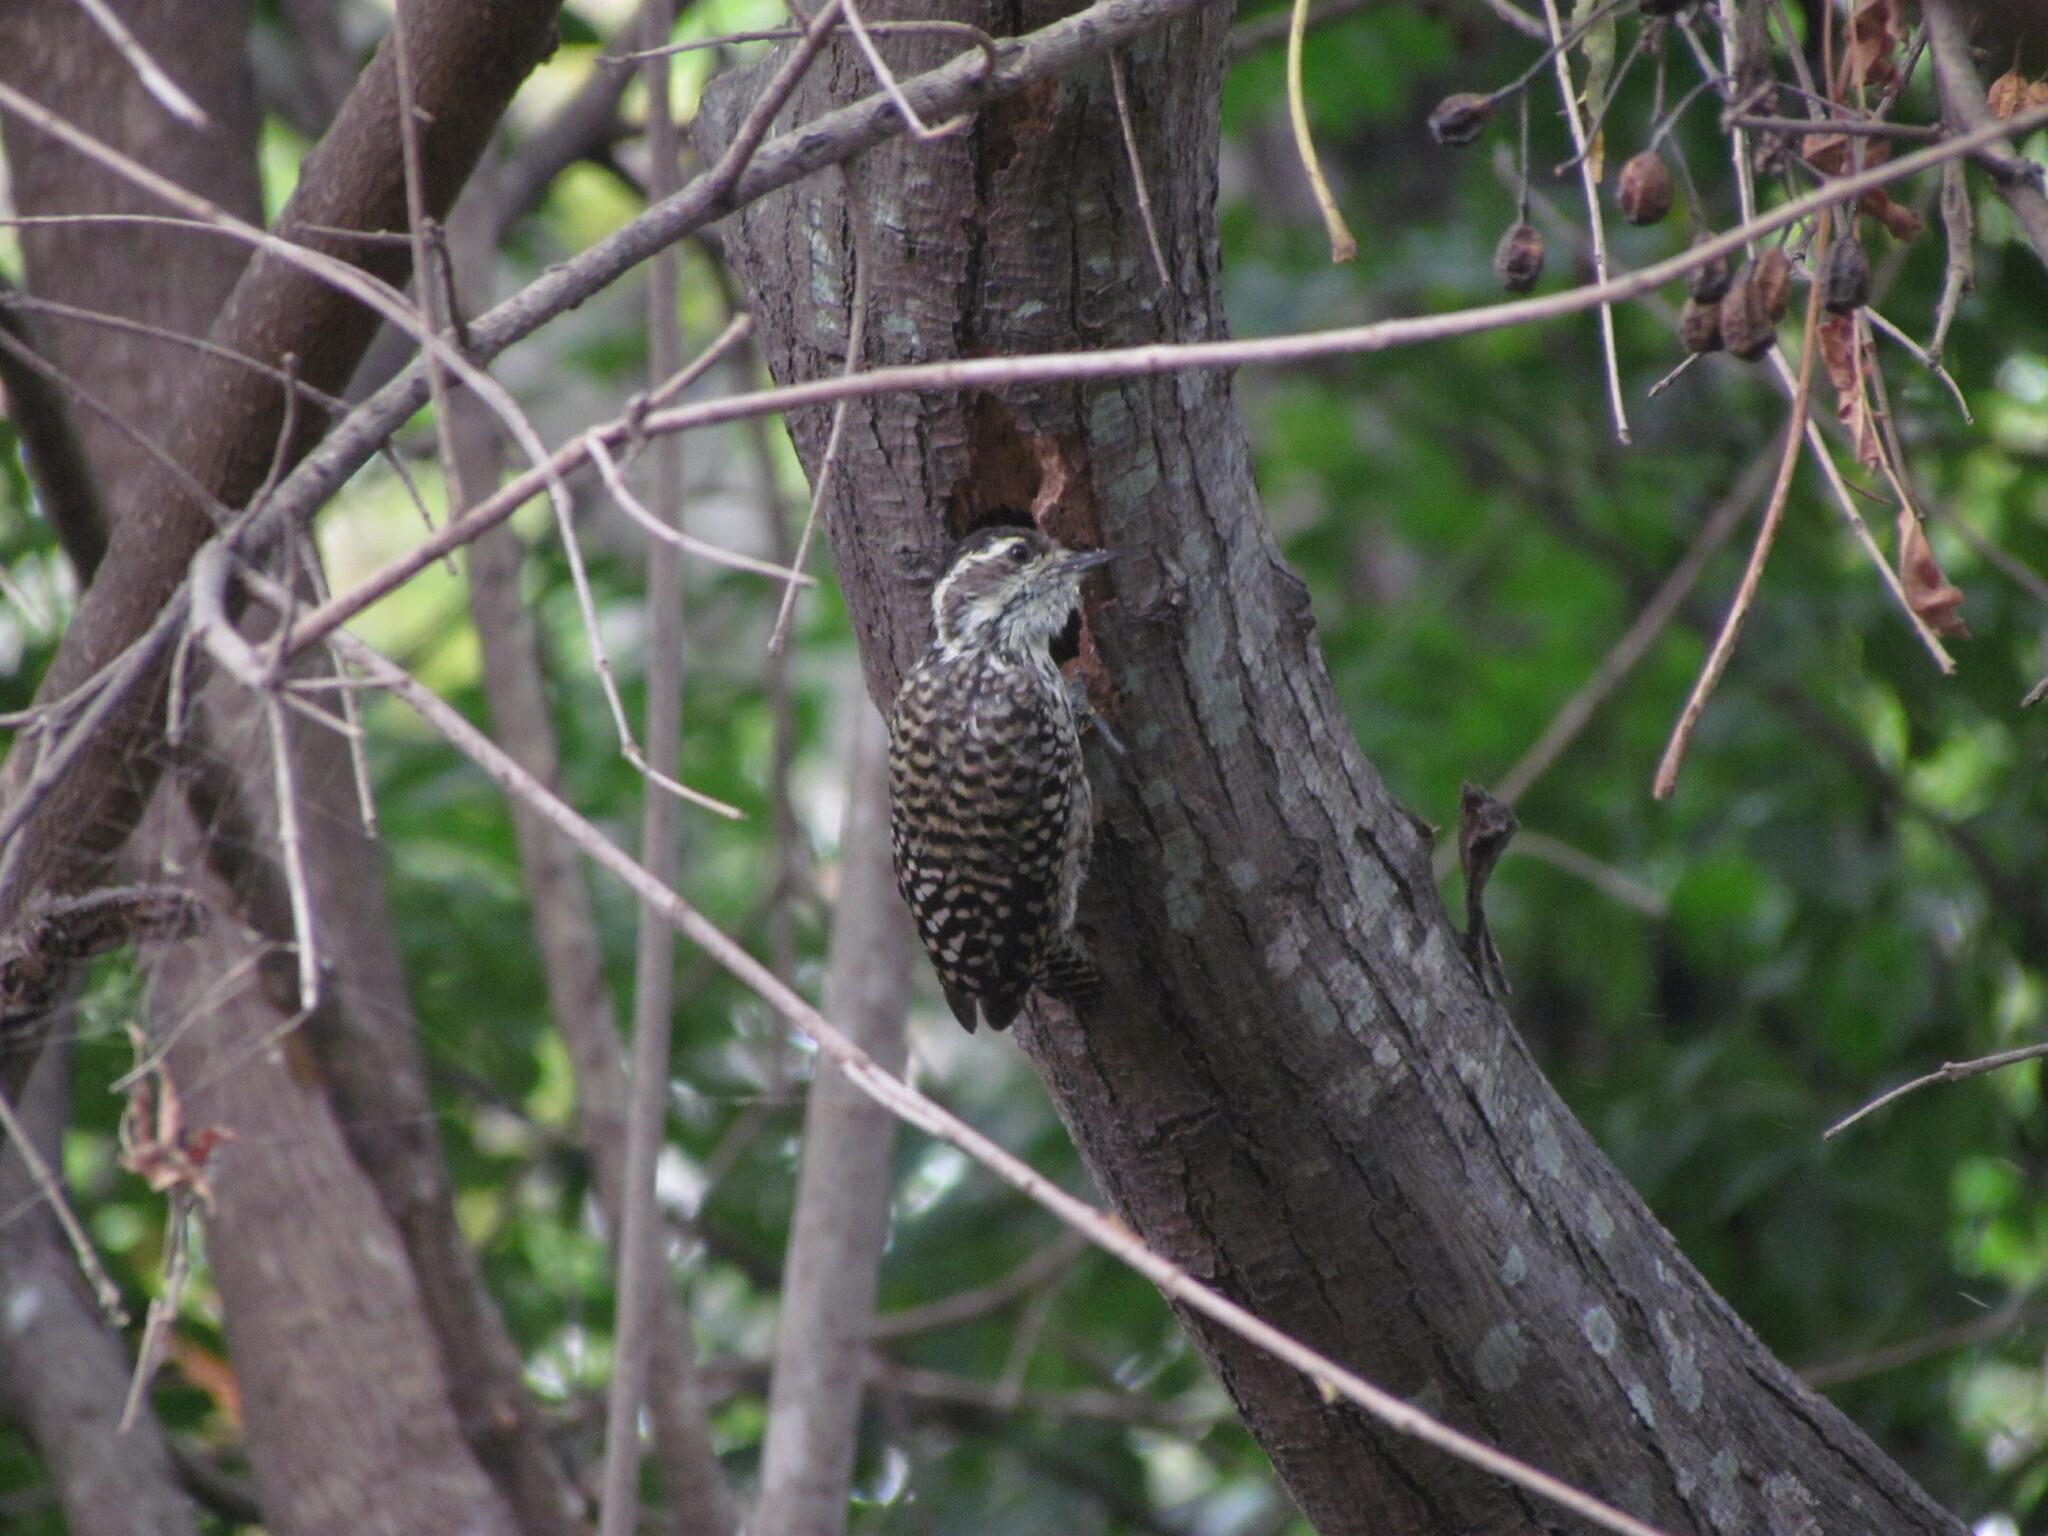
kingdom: Animalia
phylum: Chordata
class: Aves
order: Piciformes
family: Picidae
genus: Veniliornis
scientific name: Veniliornis mixtus
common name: Checkered woodpecker
